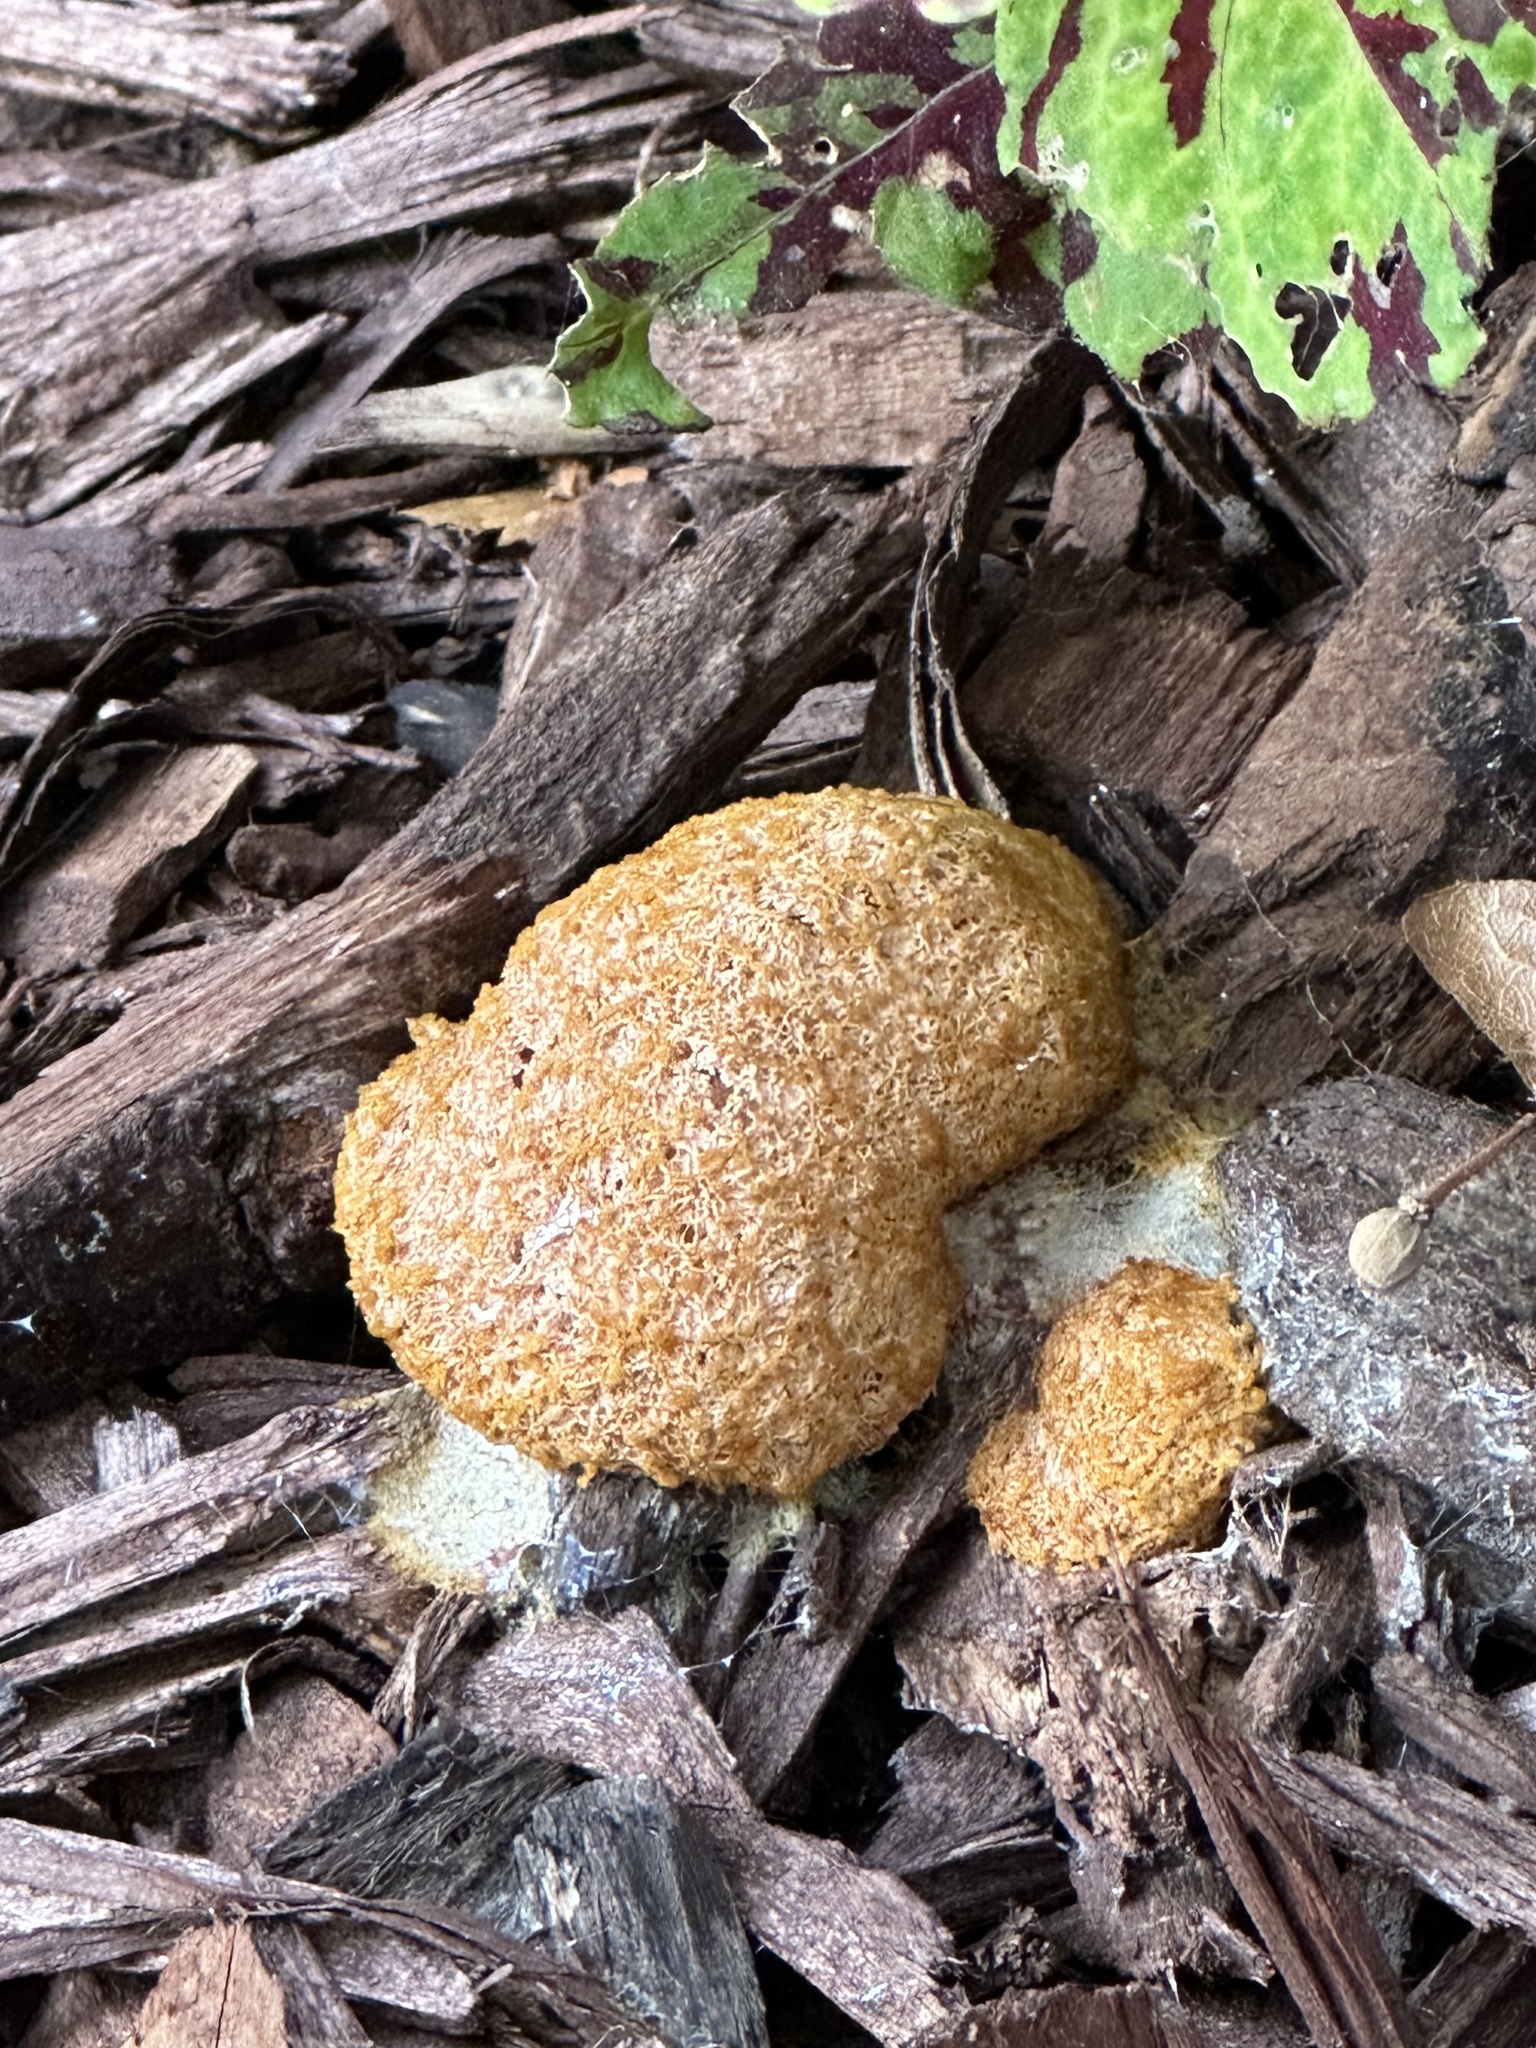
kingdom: Protozoa
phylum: Mycetozoa
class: Myxomycetes
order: Physarales
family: Physaraceae
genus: Fuligo
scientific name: Fuligo septica
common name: Dog vomit slime mold
